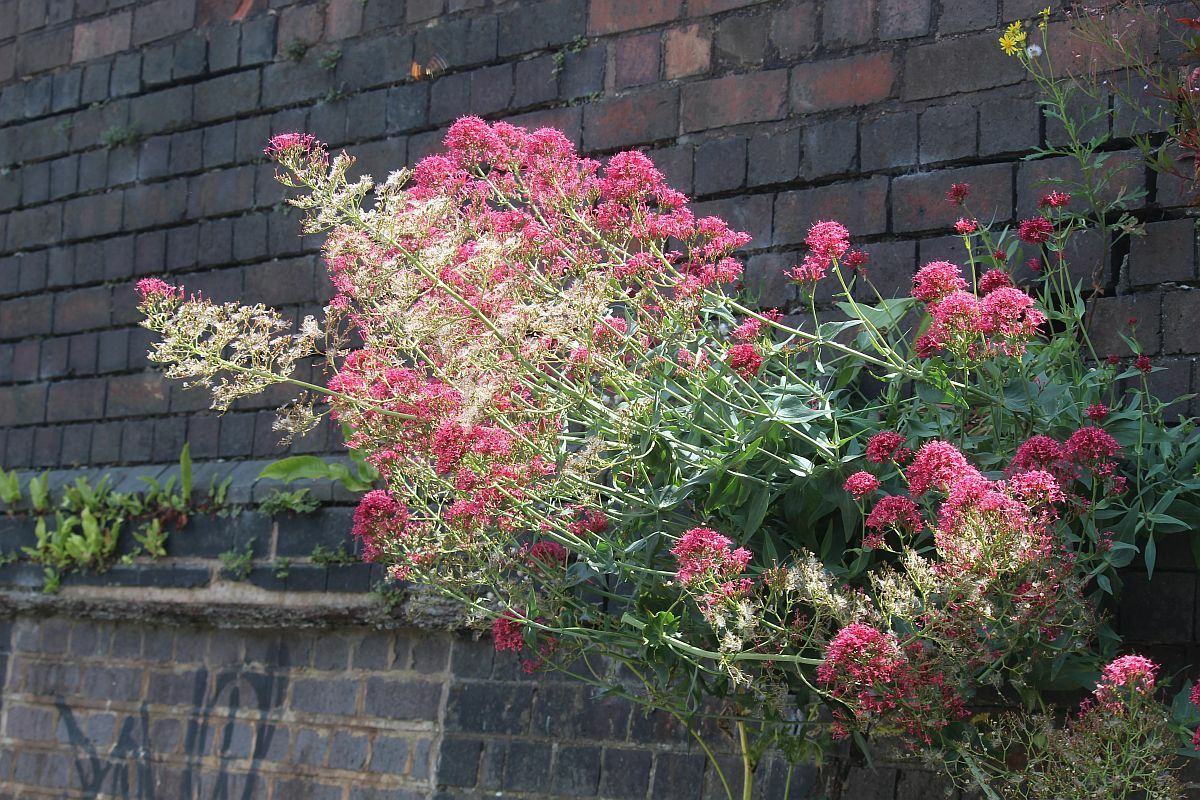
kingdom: Plantae
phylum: Tracheophyta
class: Magnoliopsida
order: Dipsacales
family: Caprifoliaceae
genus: Centranthus
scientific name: Centranthus ruber
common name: Red valerian
